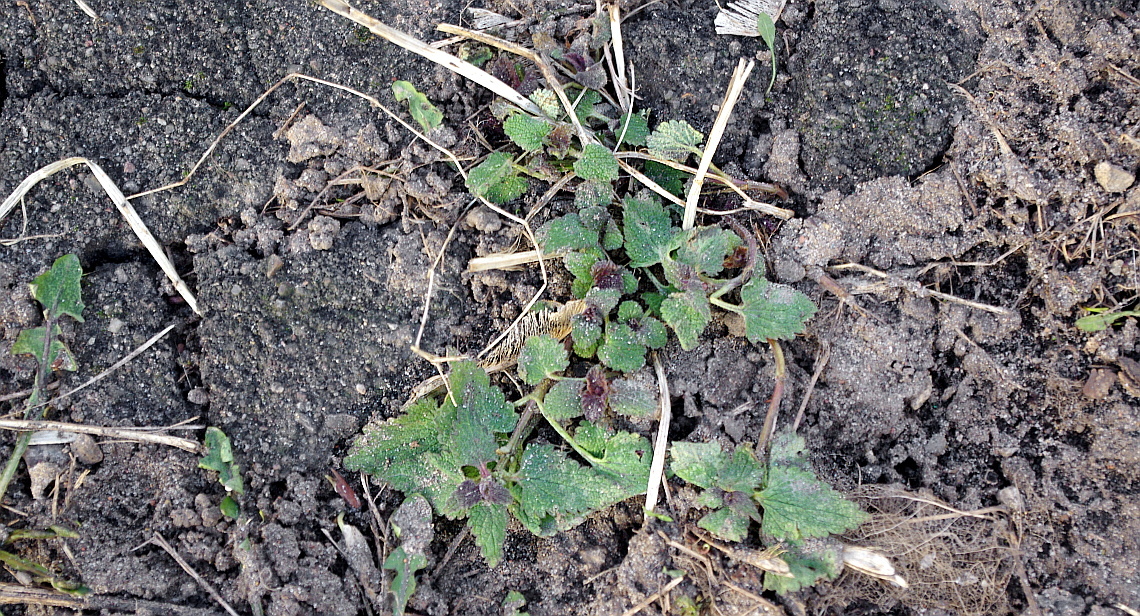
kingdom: Plantae
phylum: Tracheophyta
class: Magnoliopsida
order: Lamiales
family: Lamiaceae
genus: Lamium
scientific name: Lamium album
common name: White dead-nettle
